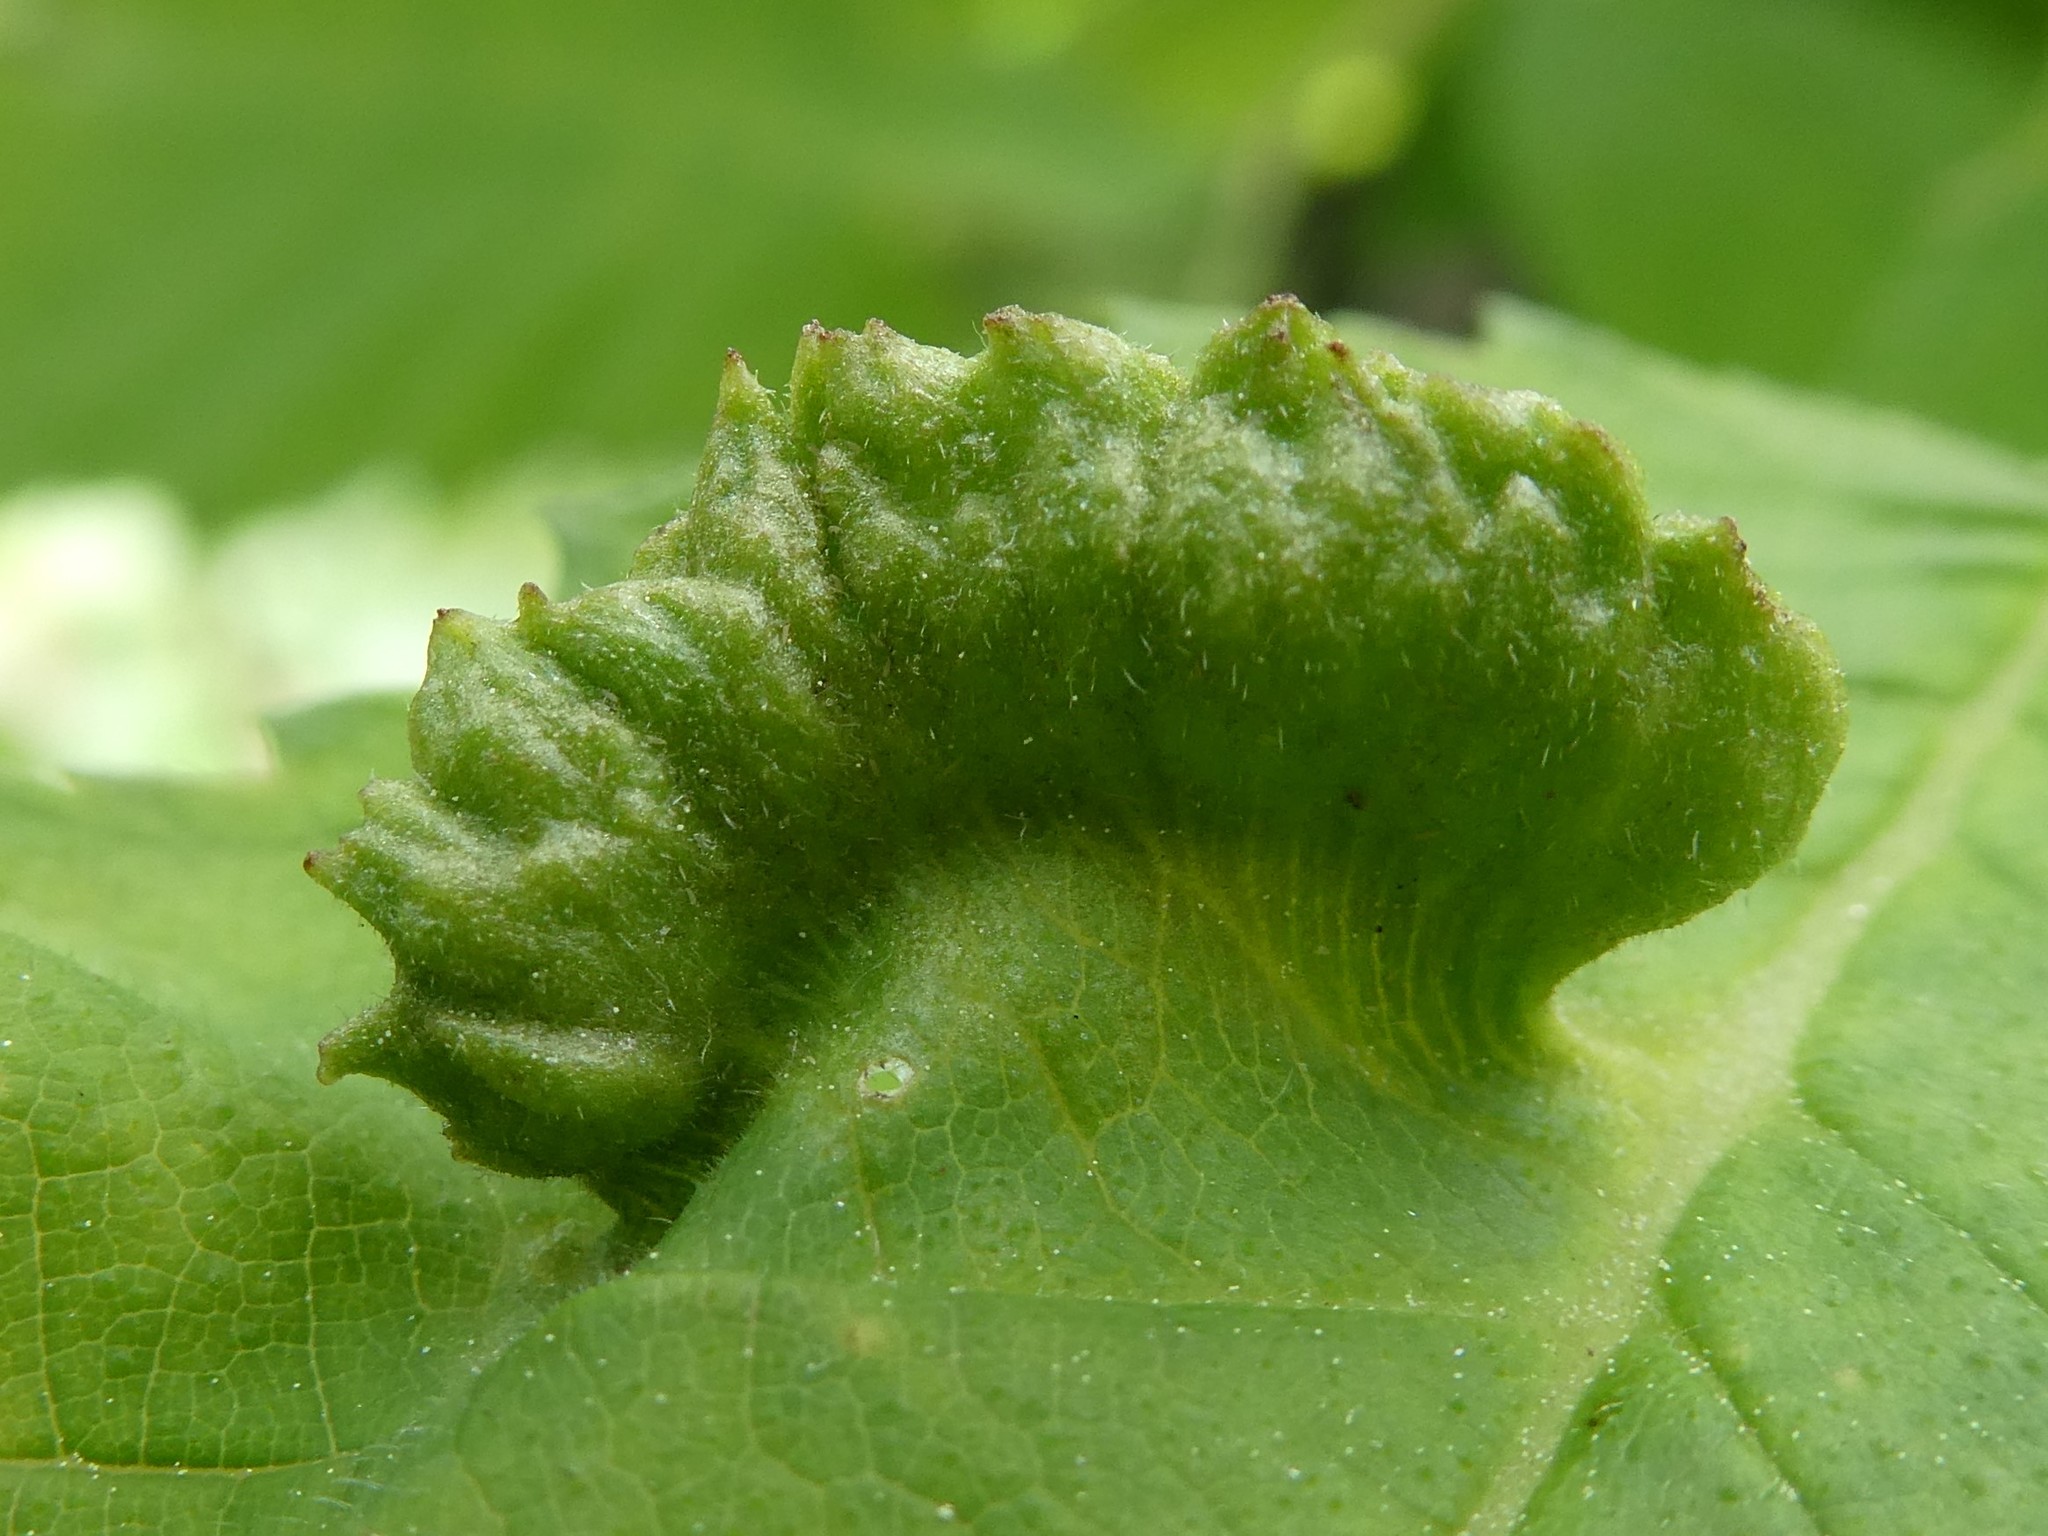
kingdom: Animalia
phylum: Arthropoda
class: Insecta
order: Hemiptera
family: Aphididae
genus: Colopha
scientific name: Colopha ulmicola
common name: Elm cockscombgall aphid
